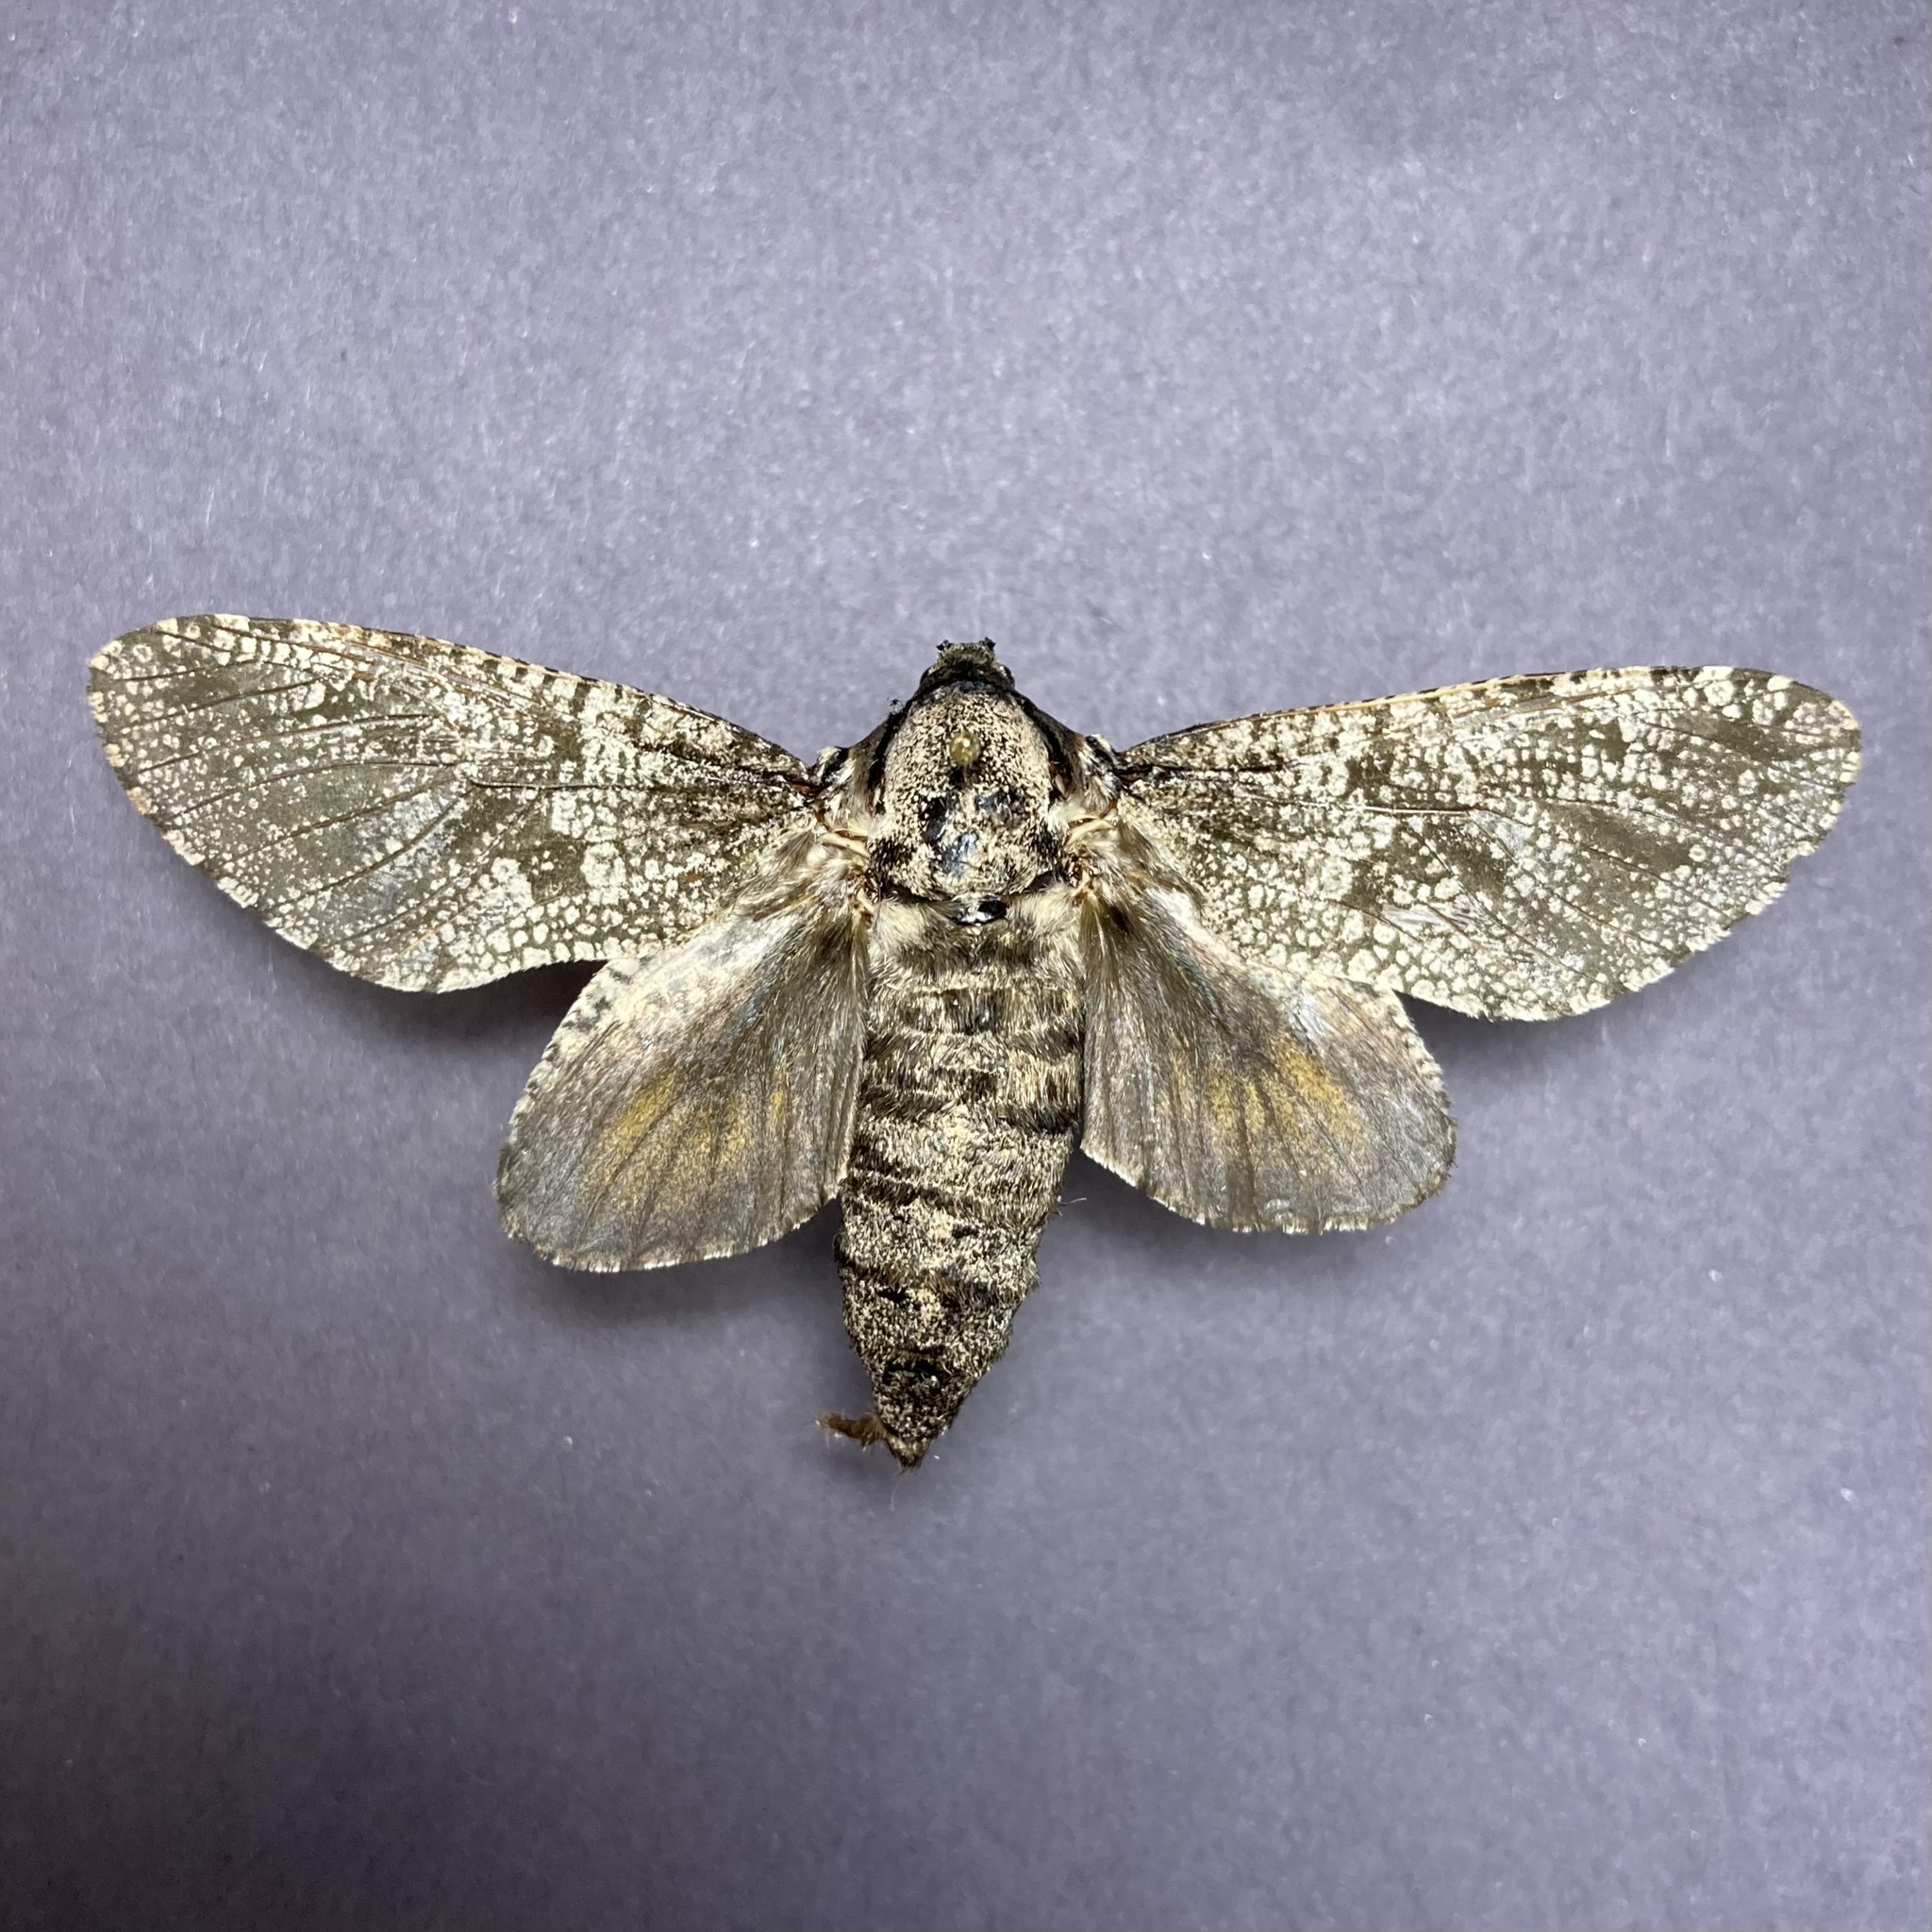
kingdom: Animalia
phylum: Arthropoda
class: Insecta
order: Lepidoptera
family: Cossidae
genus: Prionoxystus
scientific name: Prionoxystus robiniae
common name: Carpenterworm
